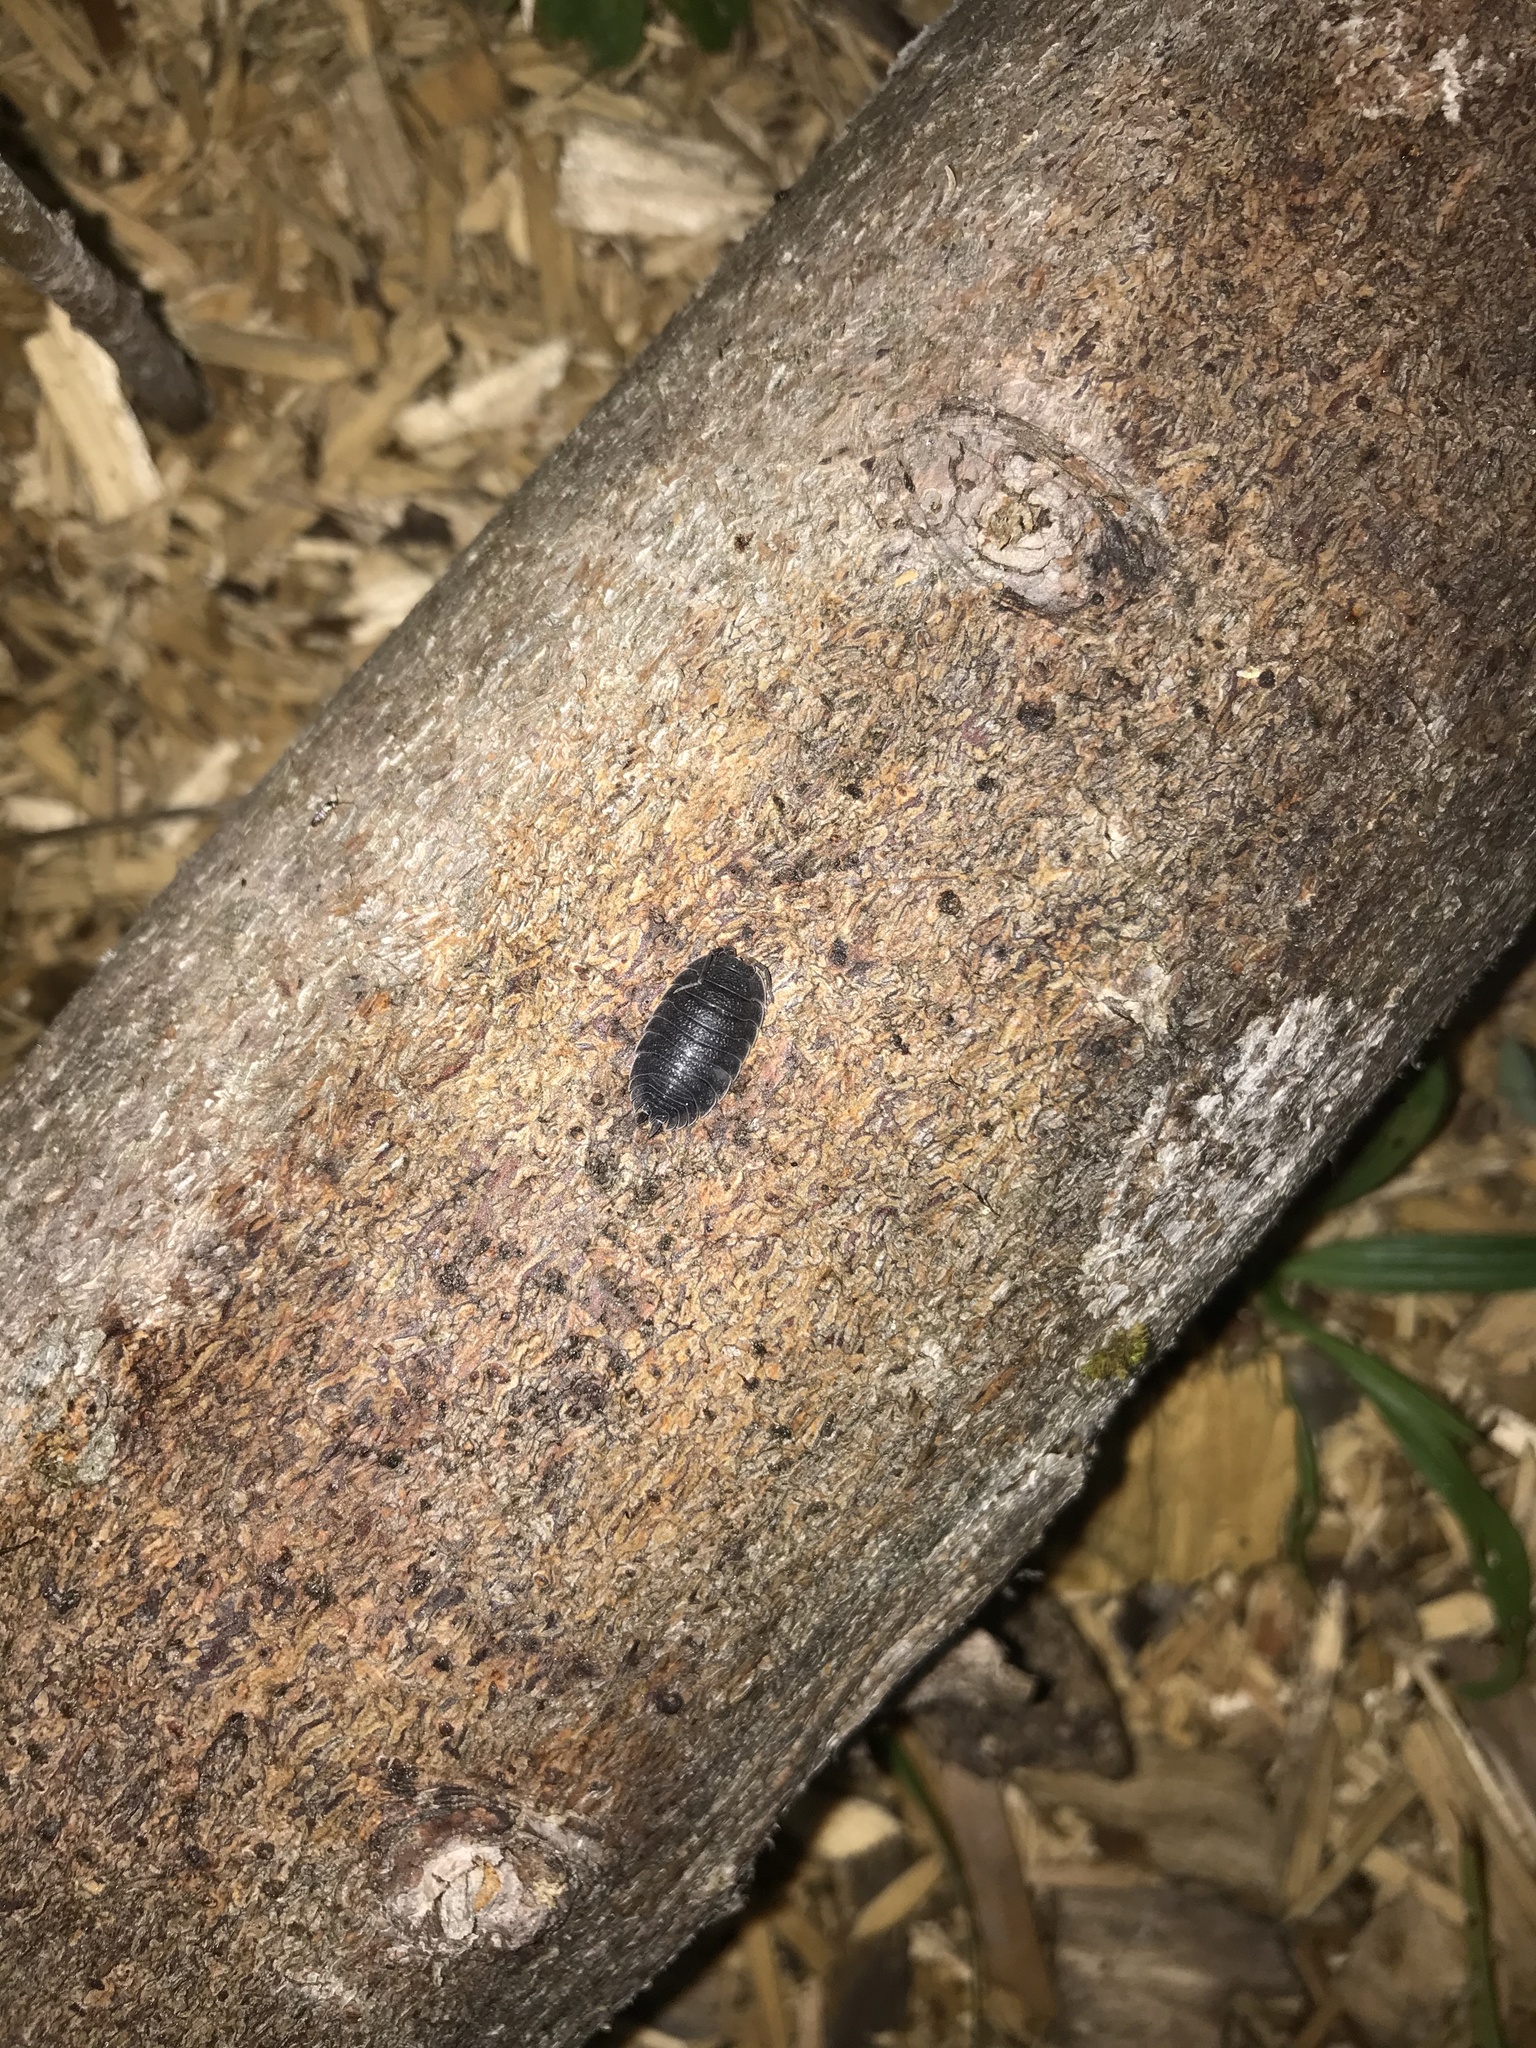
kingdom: Animalia
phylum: Arthropoda
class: Malacostraca
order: Isopoda
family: Porcellionidae
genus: Porcellio
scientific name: Porcellio scaber
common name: Common rough woodlouse
